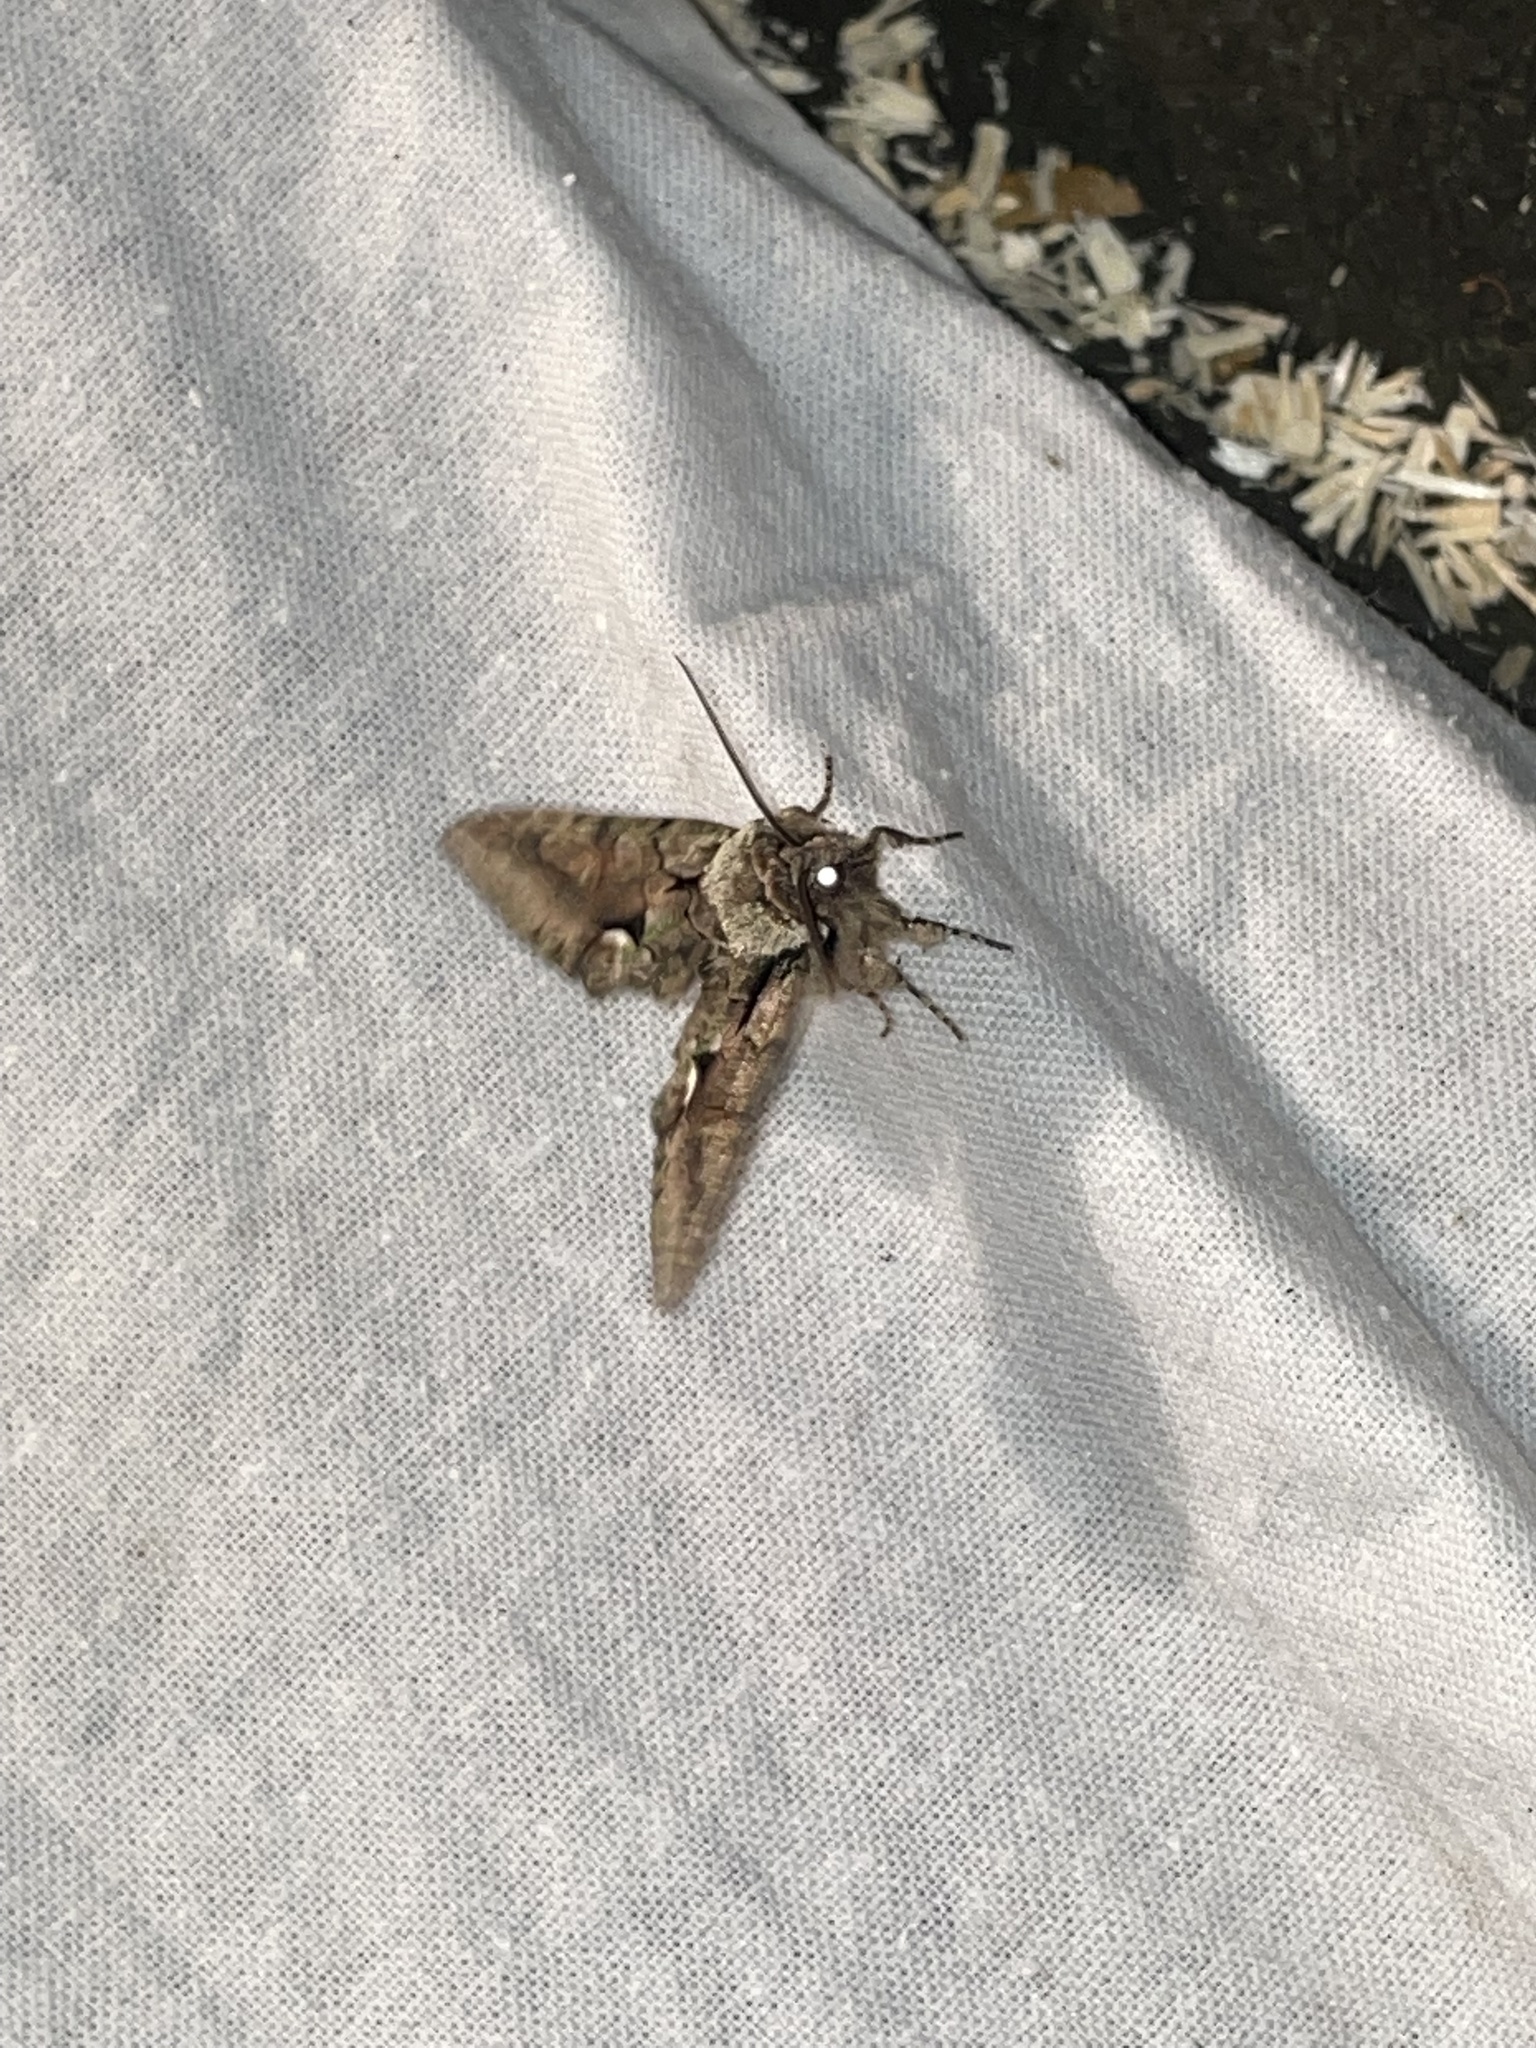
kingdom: Animalia
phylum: Arthropoda
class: Insecta
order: Lepidoptera
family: Noctuidae
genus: Allophyes
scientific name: Allophyes oxyacanthae
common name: Green-brindled crescent
